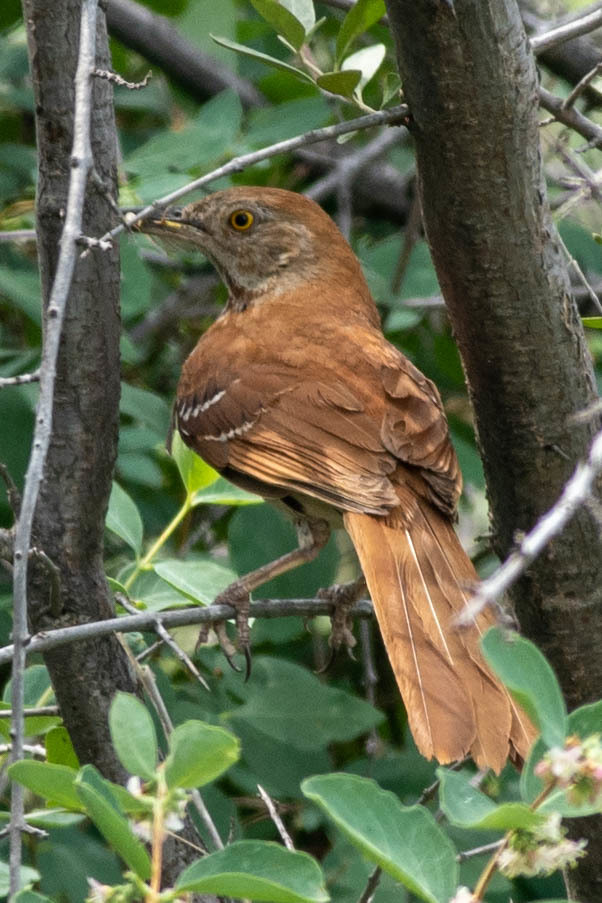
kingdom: Animalia
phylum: Chordata
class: Aves
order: Passeriformes
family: Mimidae
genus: Toxostoma
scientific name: Toxostoma rufum
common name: Brown thrasher
